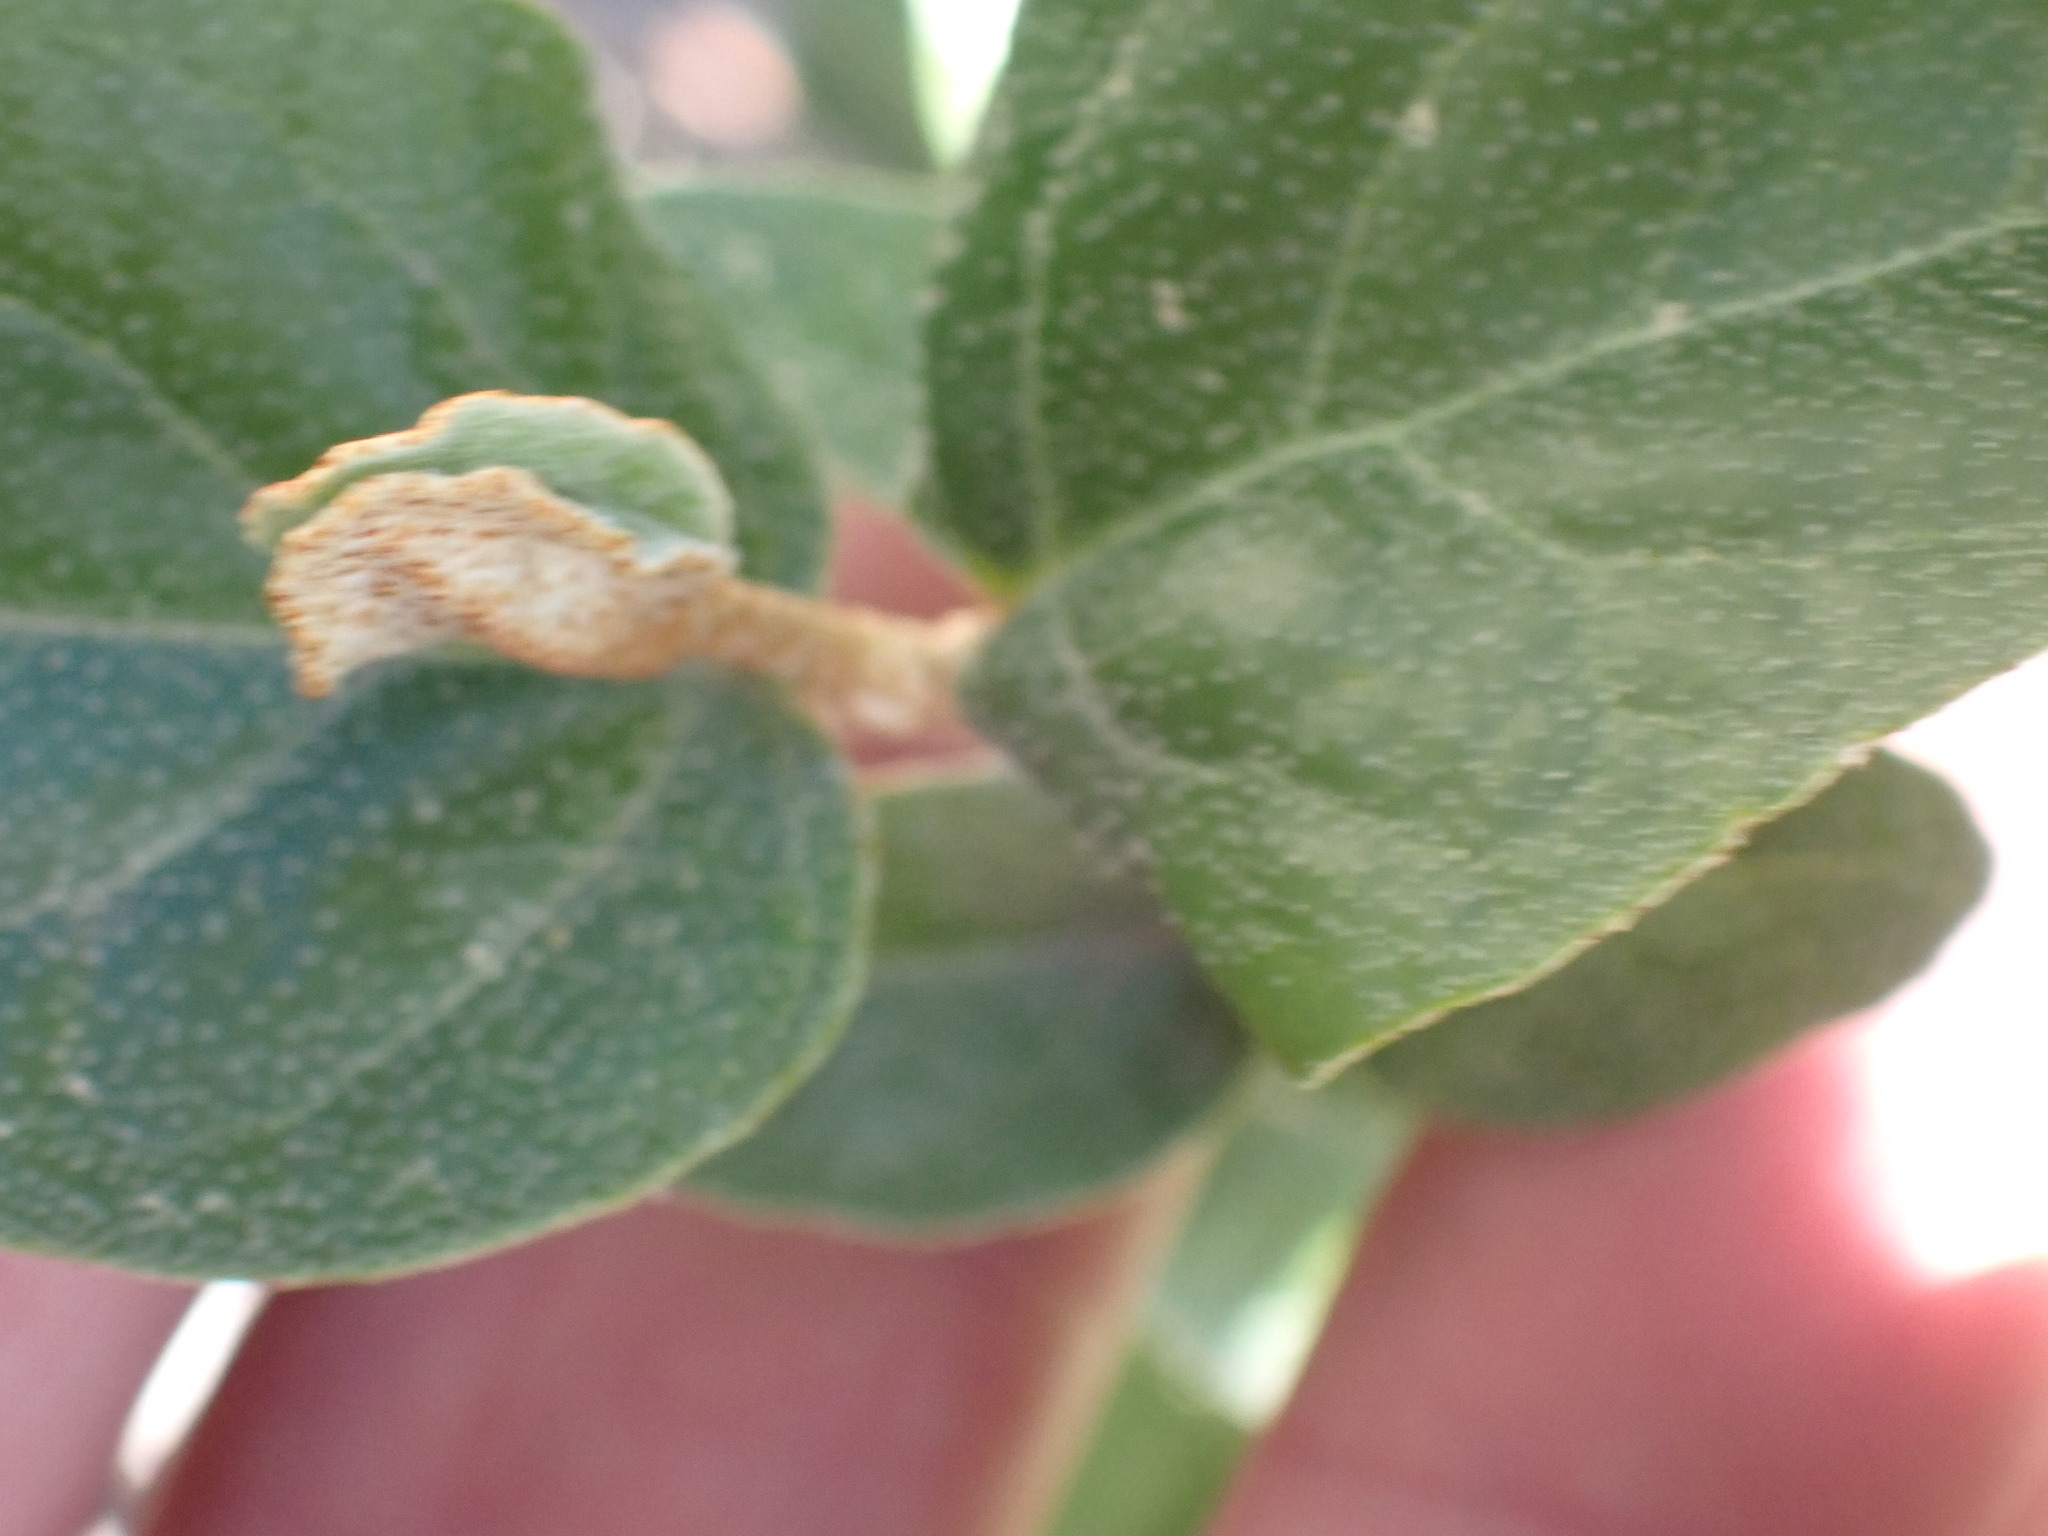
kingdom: Plantae
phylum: Tracheophyta
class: Magnoliopsida
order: Rosales
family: Elaeagnaceae
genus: Shepherdia
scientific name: Shepherdia canadensis
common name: Soapberry
